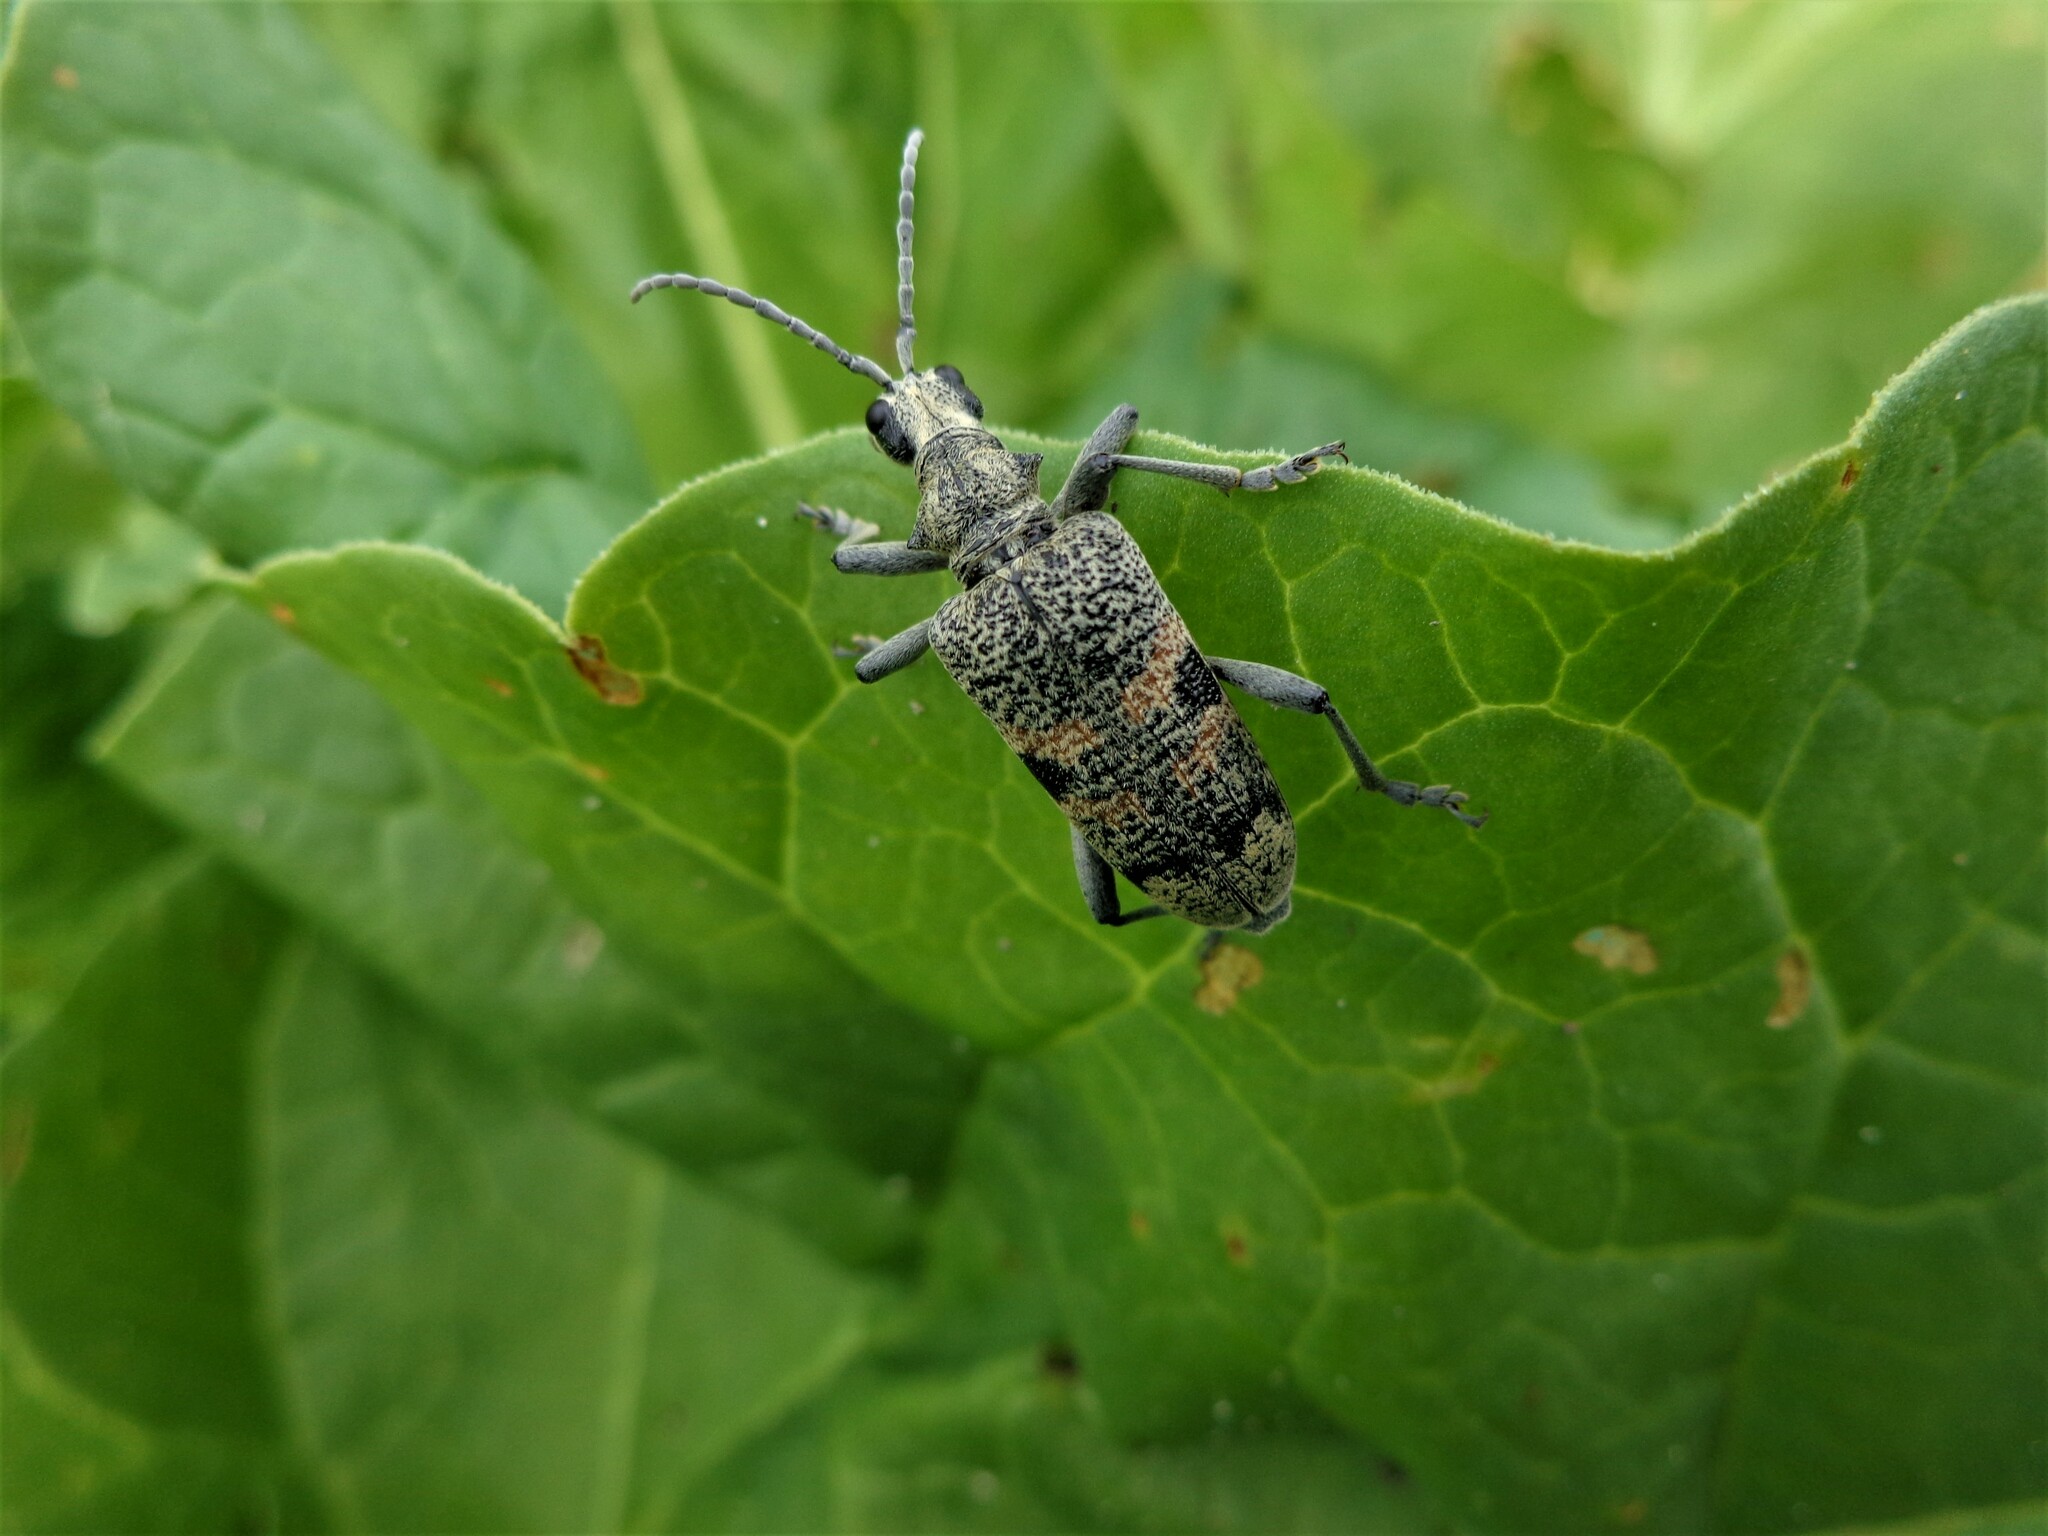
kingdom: Animalia
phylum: Arthropoda
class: Insecta
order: Coleoptera
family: Cerambycidae
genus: Rhagium
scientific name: Rhagium mordax
